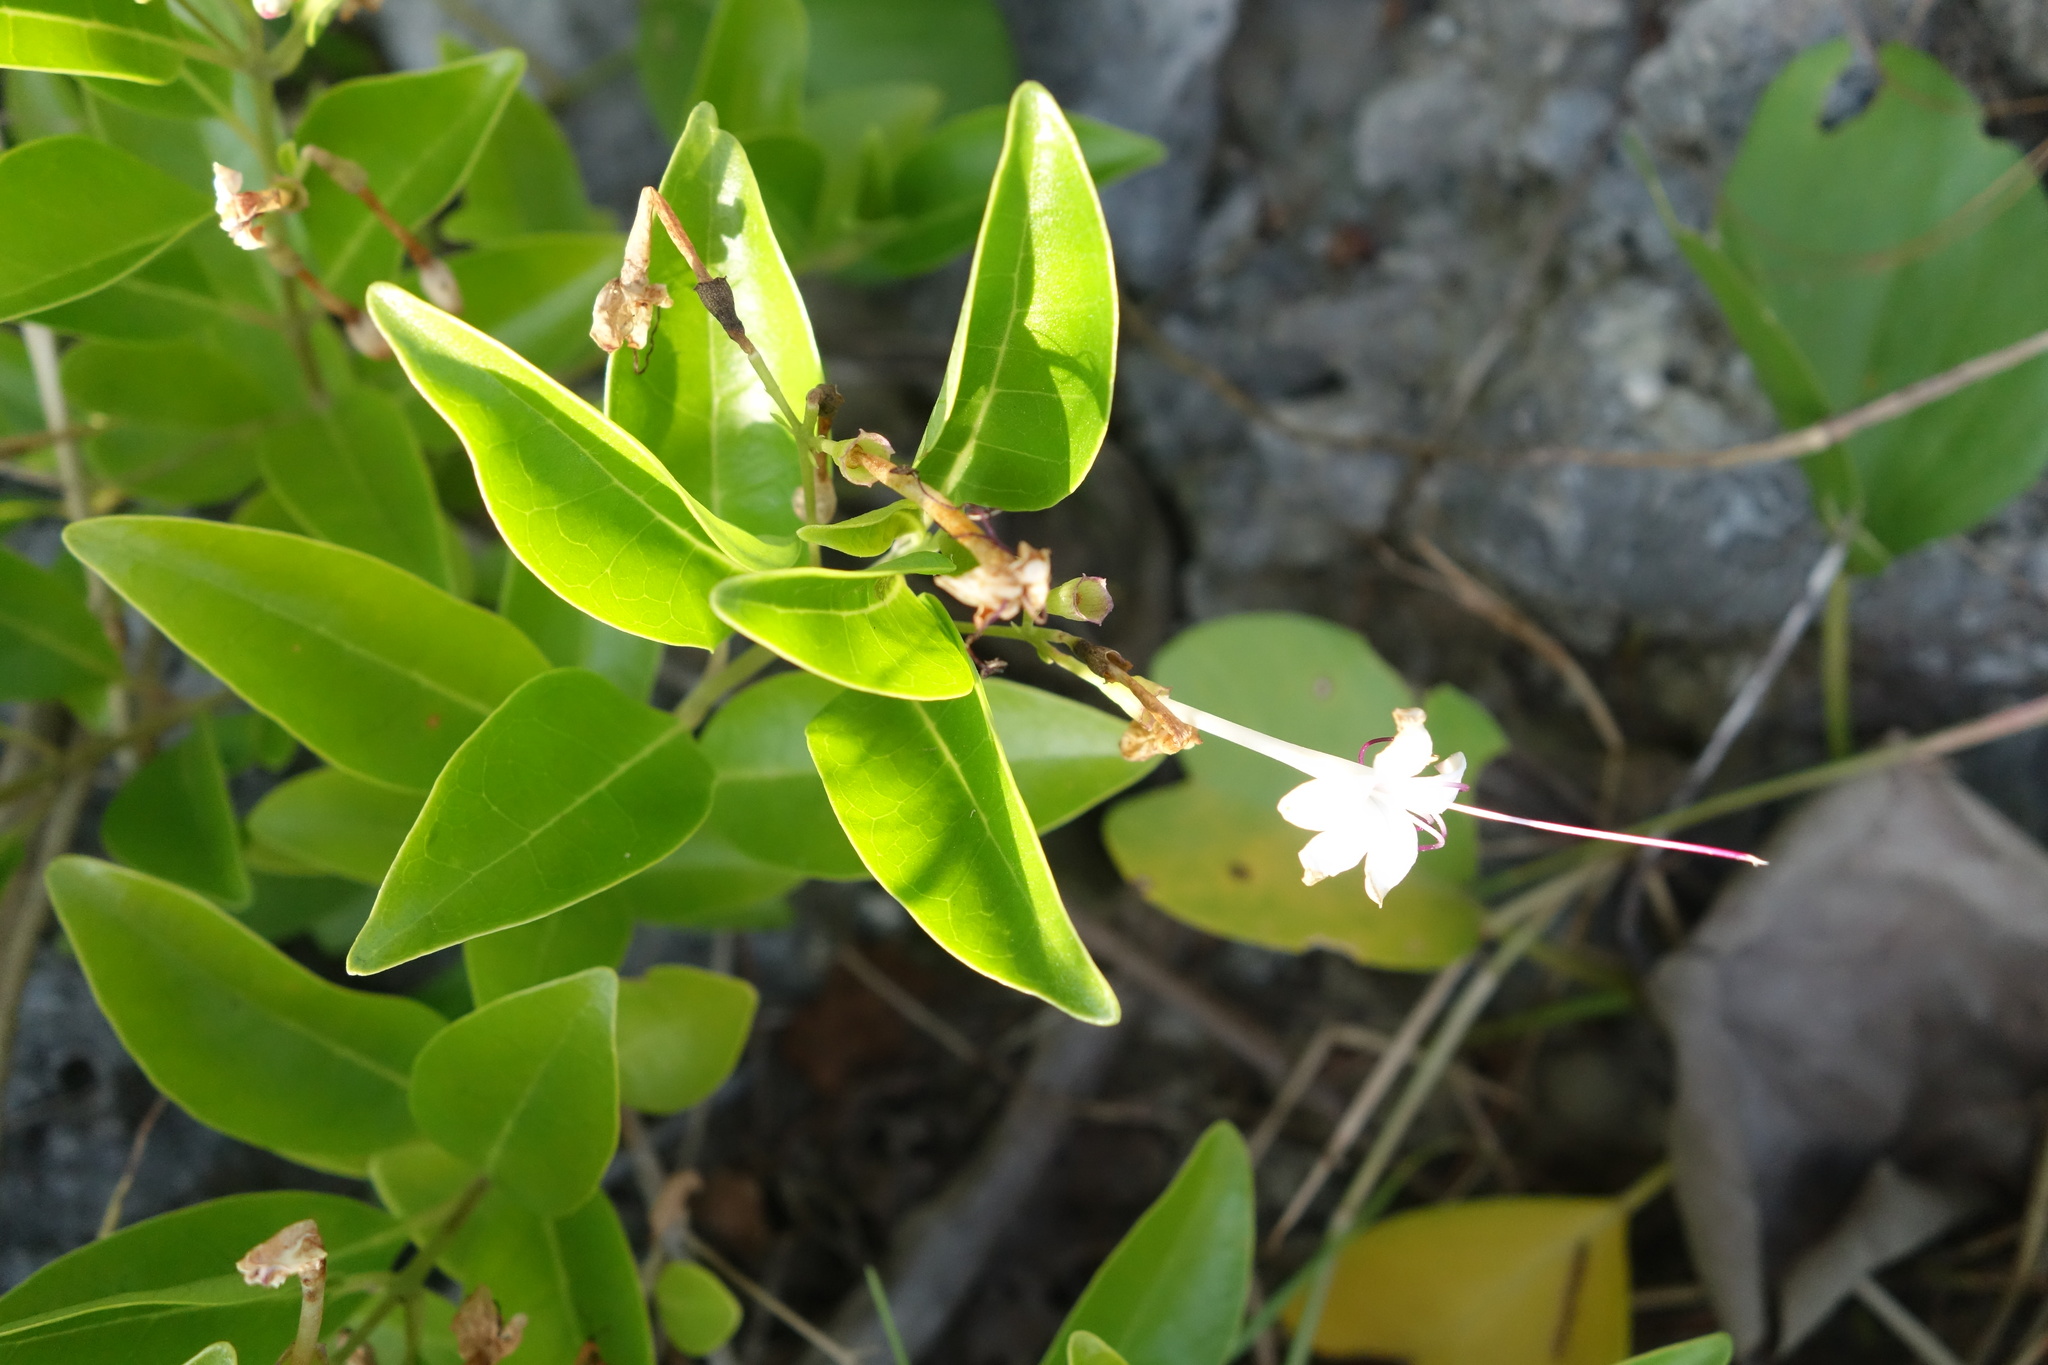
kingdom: Plantae
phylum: Tracheophyta
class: Magnoliopsida
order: Lamiales
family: Lamiaceae
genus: Volkameria
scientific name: Volkameria inermis
